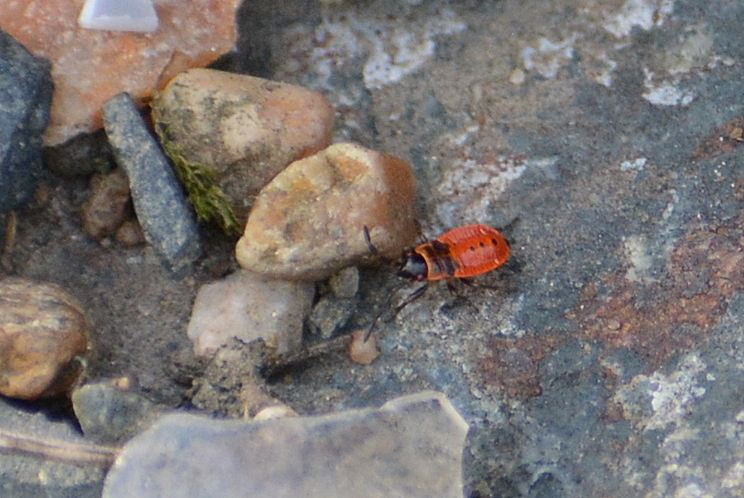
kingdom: Animalia
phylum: Arthropoda
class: Insecta
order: Hemiptera
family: Pyrrhocoridae
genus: Pyrrhocoris
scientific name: Pyrrhocoris apterus
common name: Firebug
